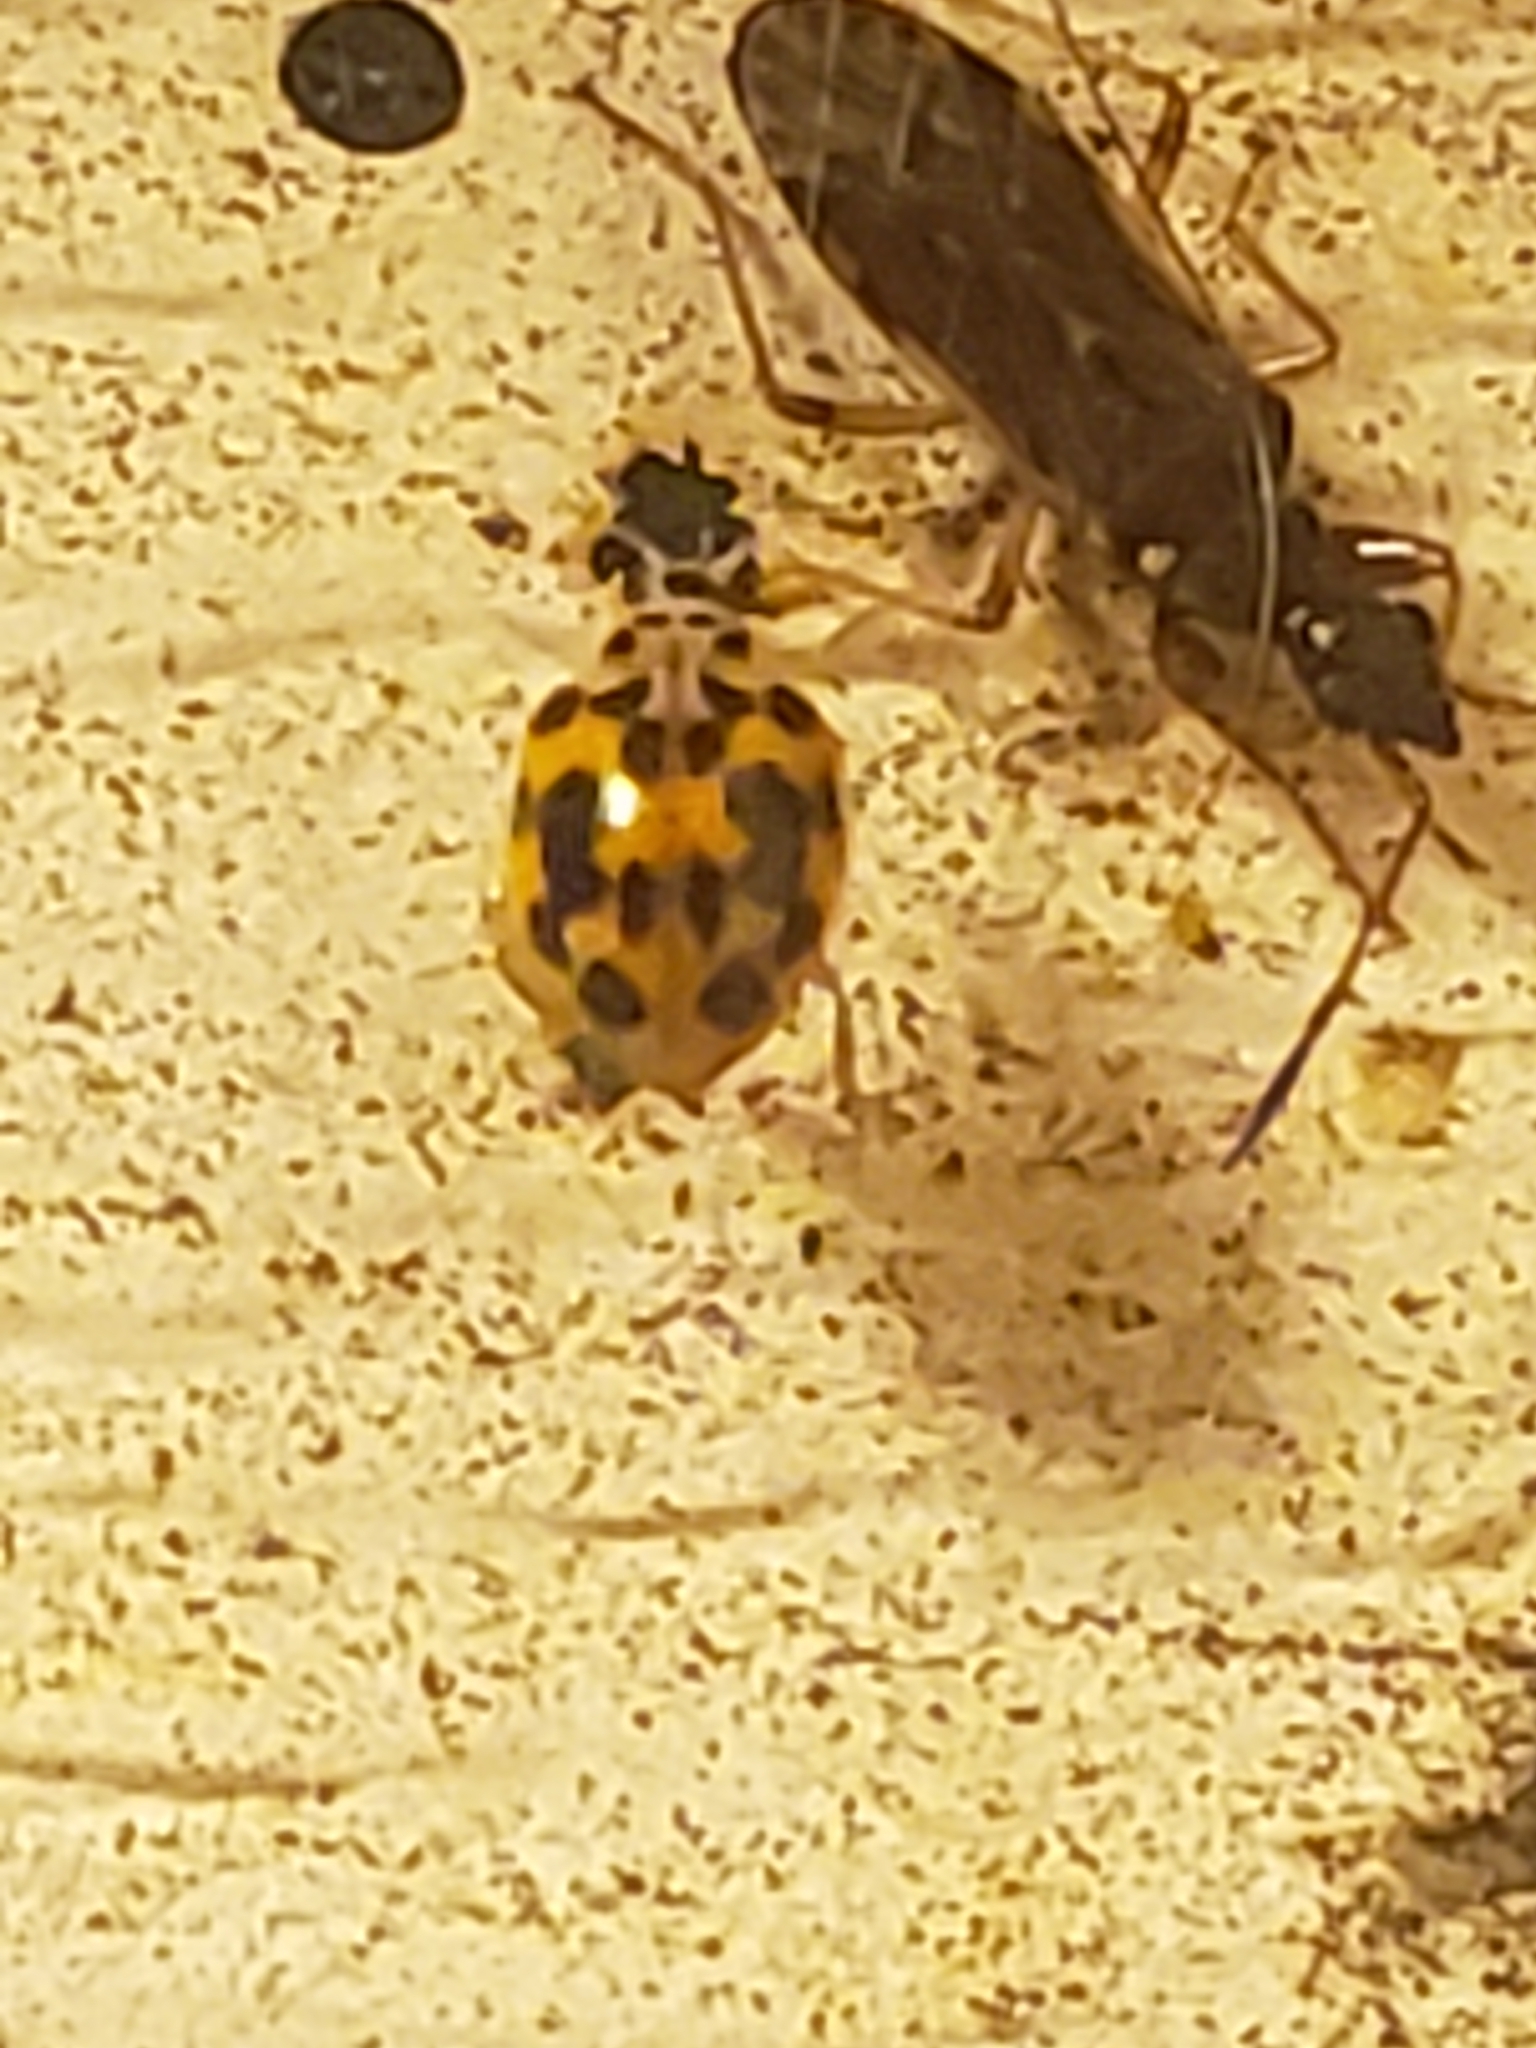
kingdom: Animalia
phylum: Arthropoda
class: Insecta
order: Coleoptera
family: Coccinellidae
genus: Psyllobora
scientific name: Psyllobora vigintimaculata
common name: Ladybird beetle
